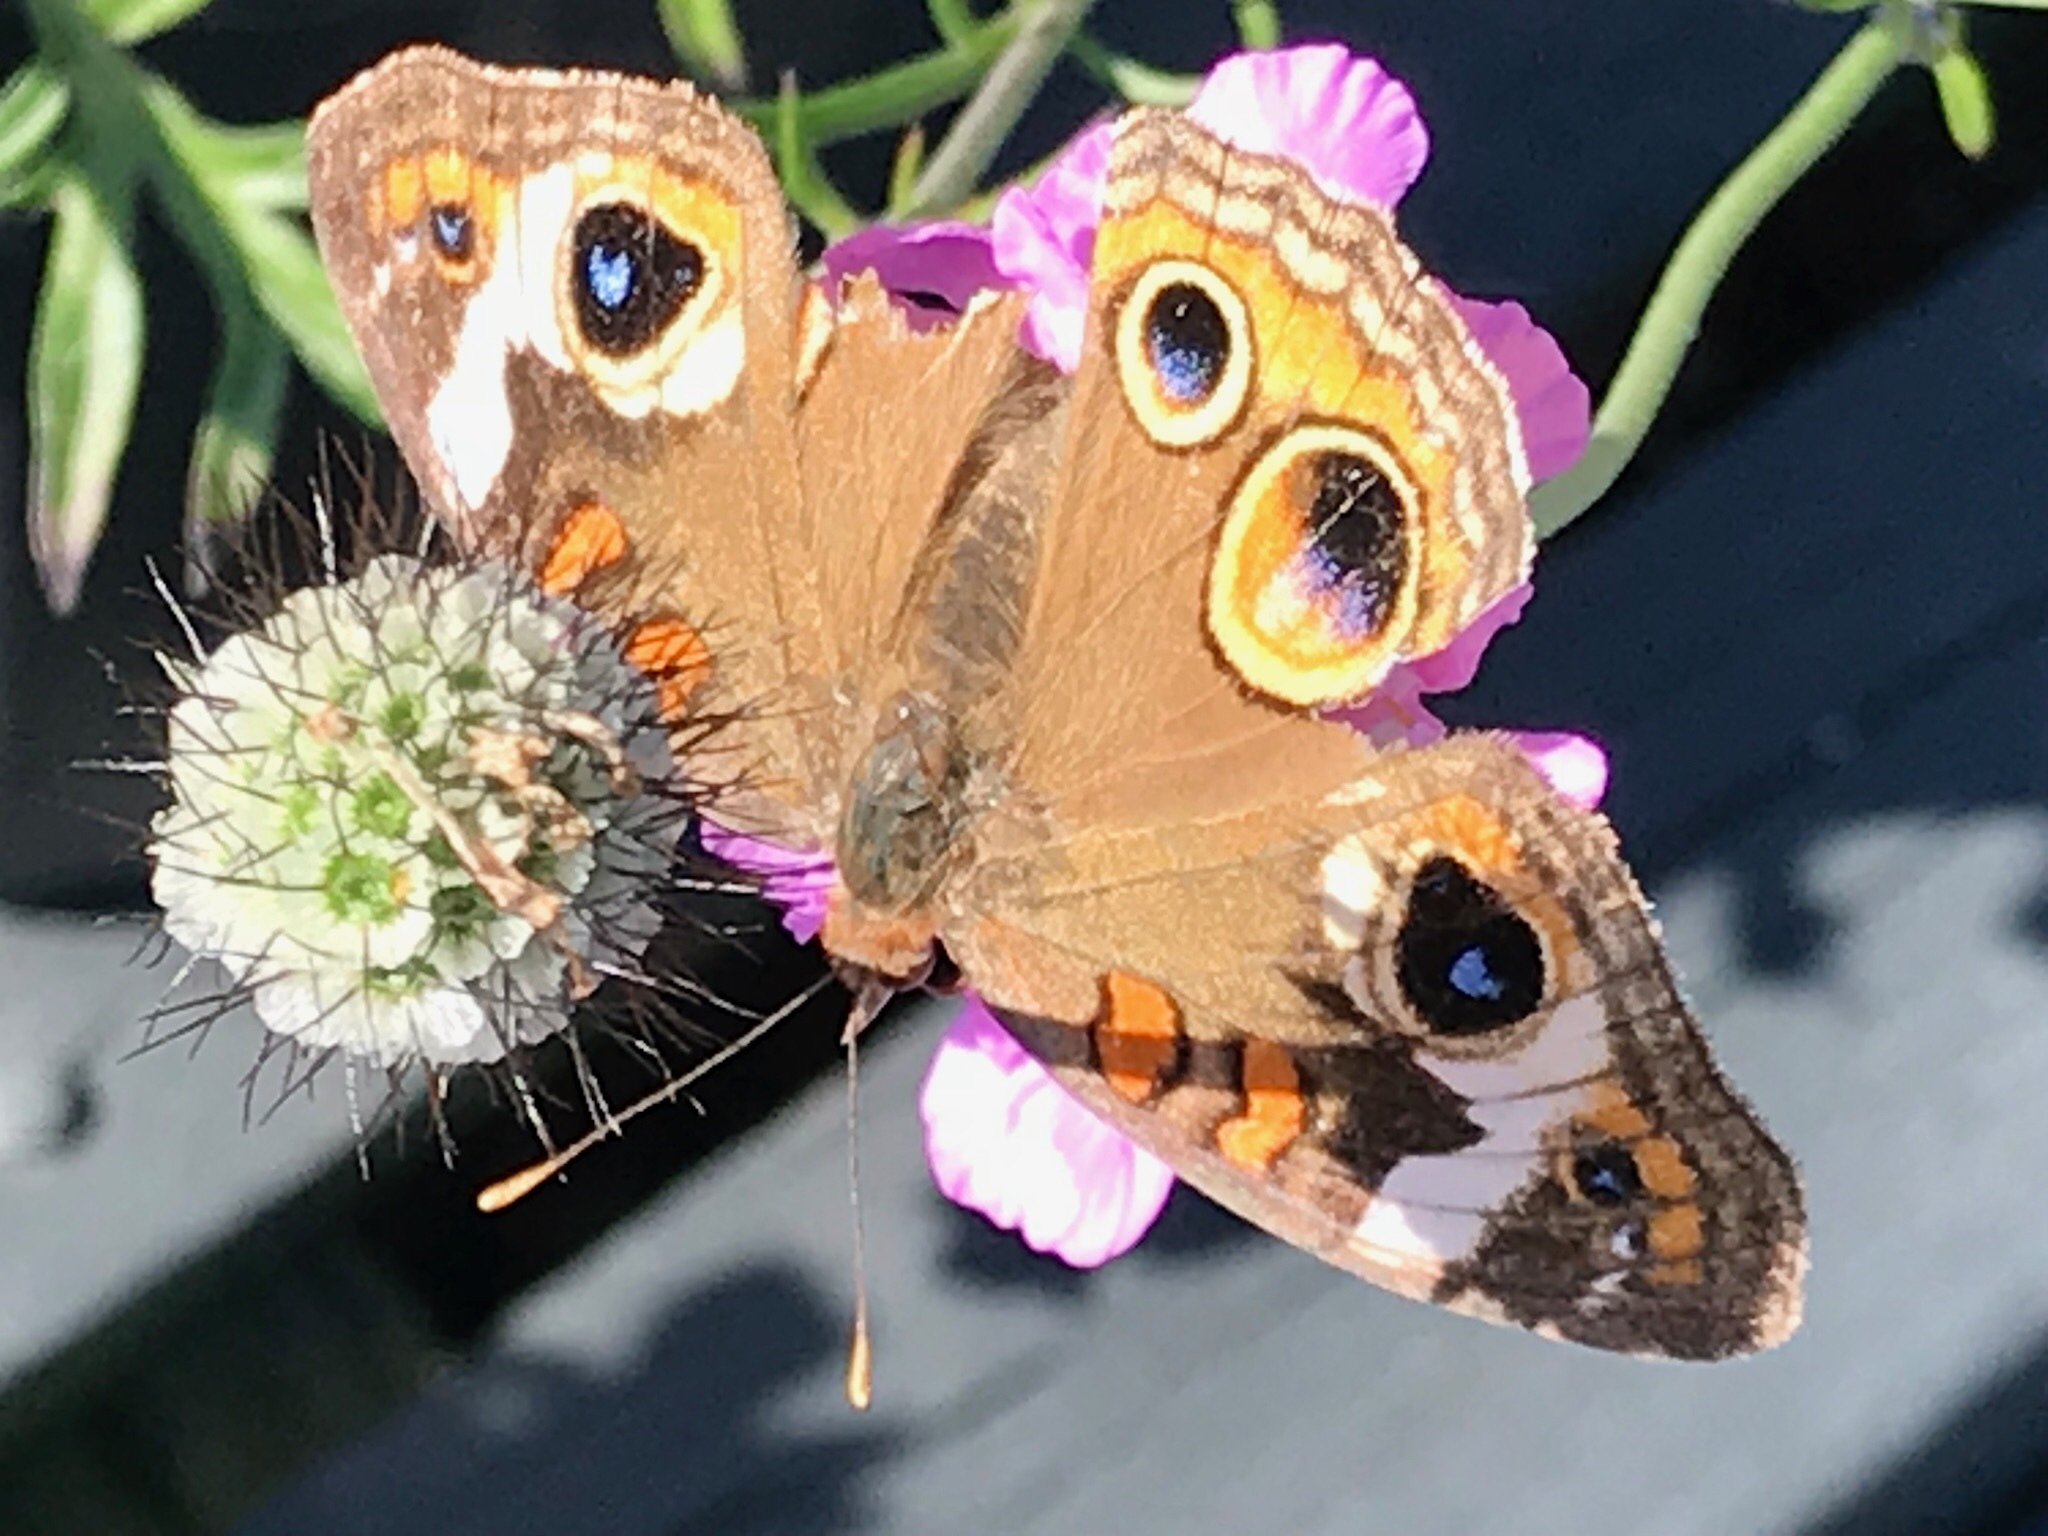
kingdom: Animalia
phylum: Arthropoda
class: Insecta
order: Lepidoptera
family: Nymphalidae
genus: Junonia
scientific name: Junonia coenia
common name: Common buckeye
